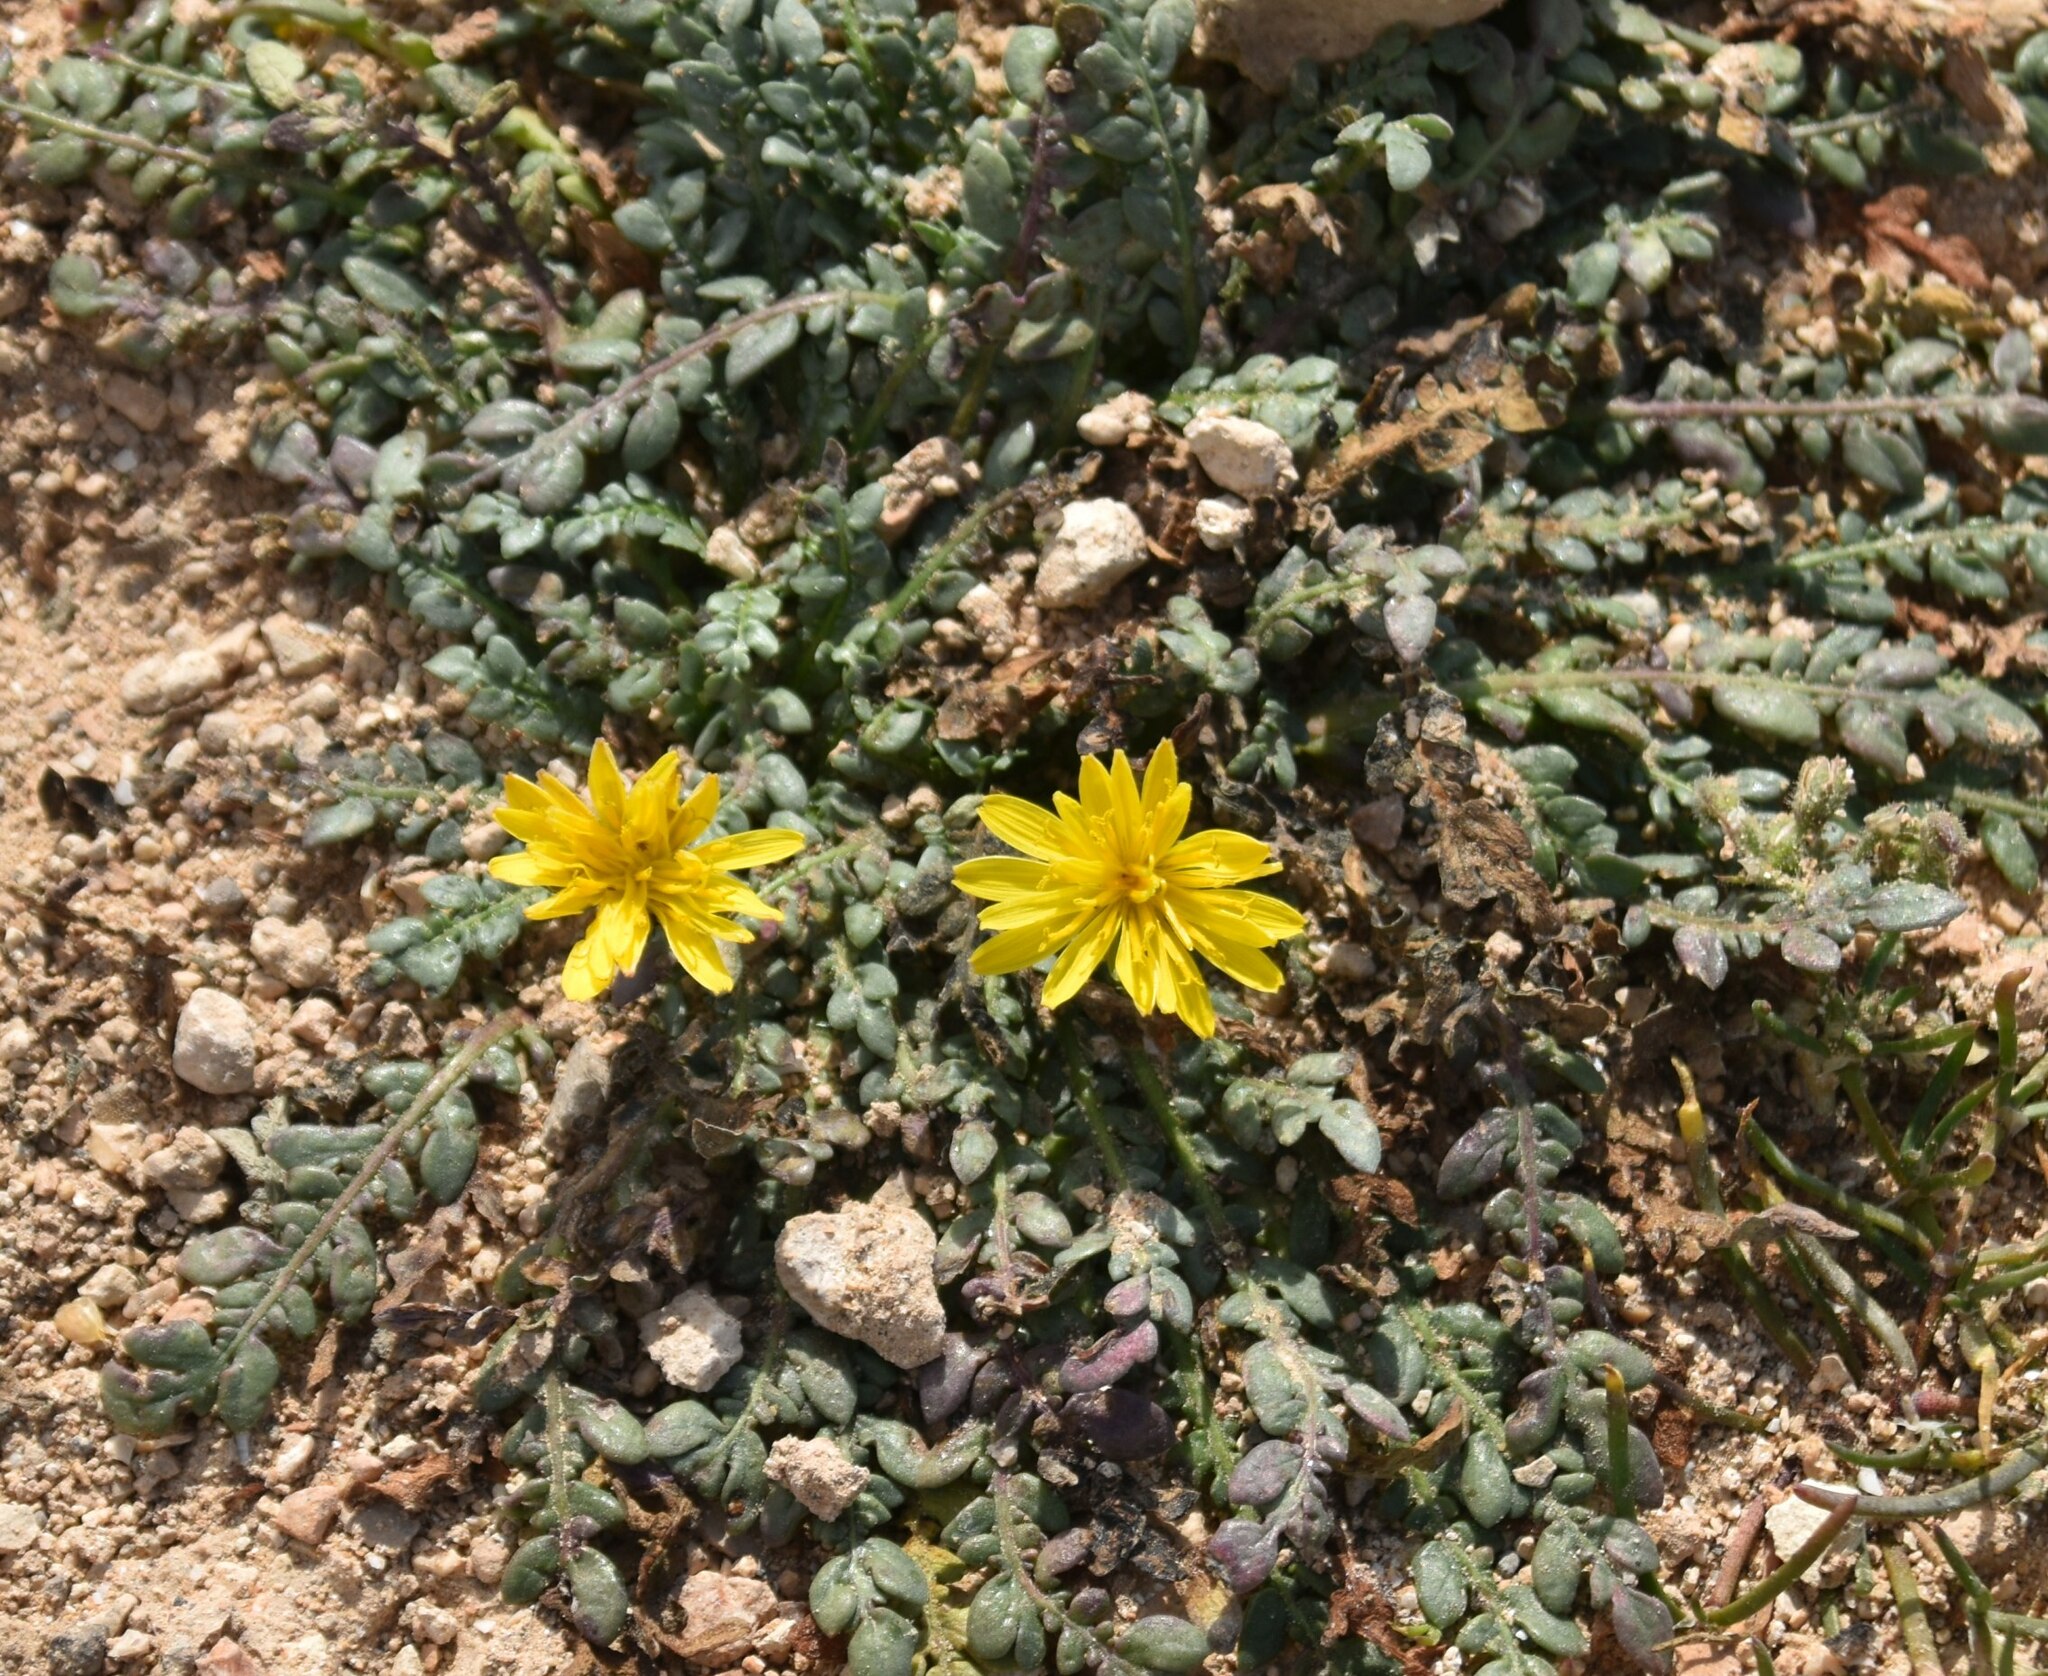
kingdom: Plantae
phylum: Tracheophyta
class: Magnoliopsida
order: Asterales
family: Asteraceae
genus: Taraxacum
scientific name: Taraxacum aphrogenes
